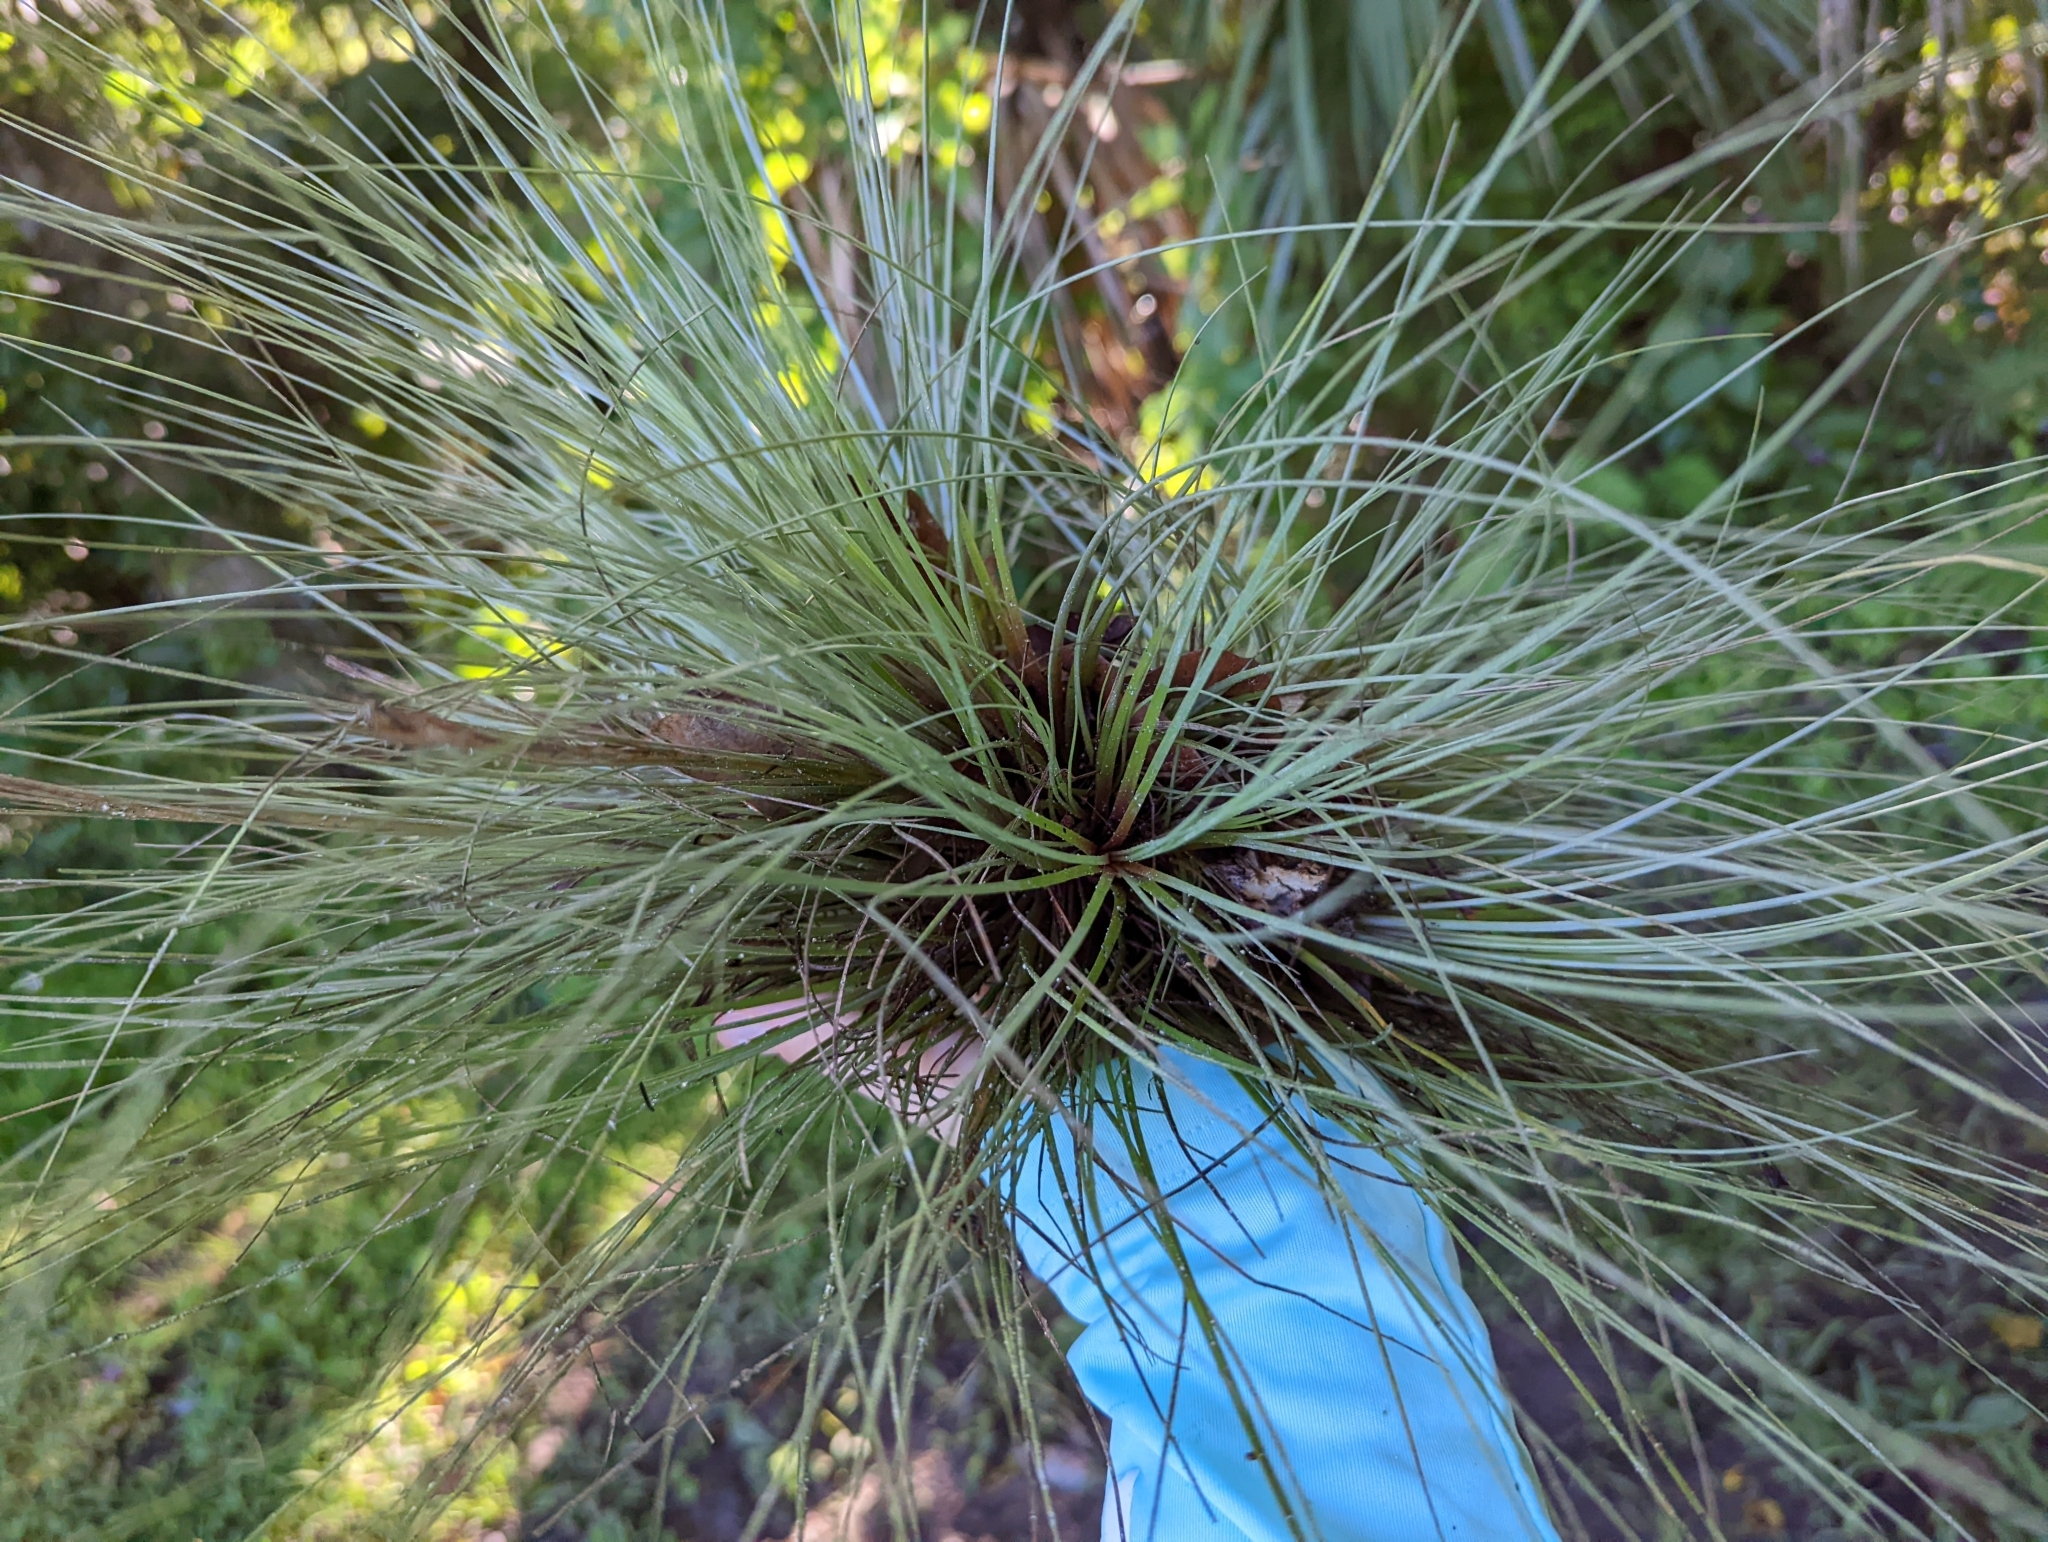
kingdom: Plantae
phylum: Tracheophyta
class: Liliopsida
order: Poales
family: Bromeliaceae
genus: Tillandsia
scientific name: Tillandsia bartramii
